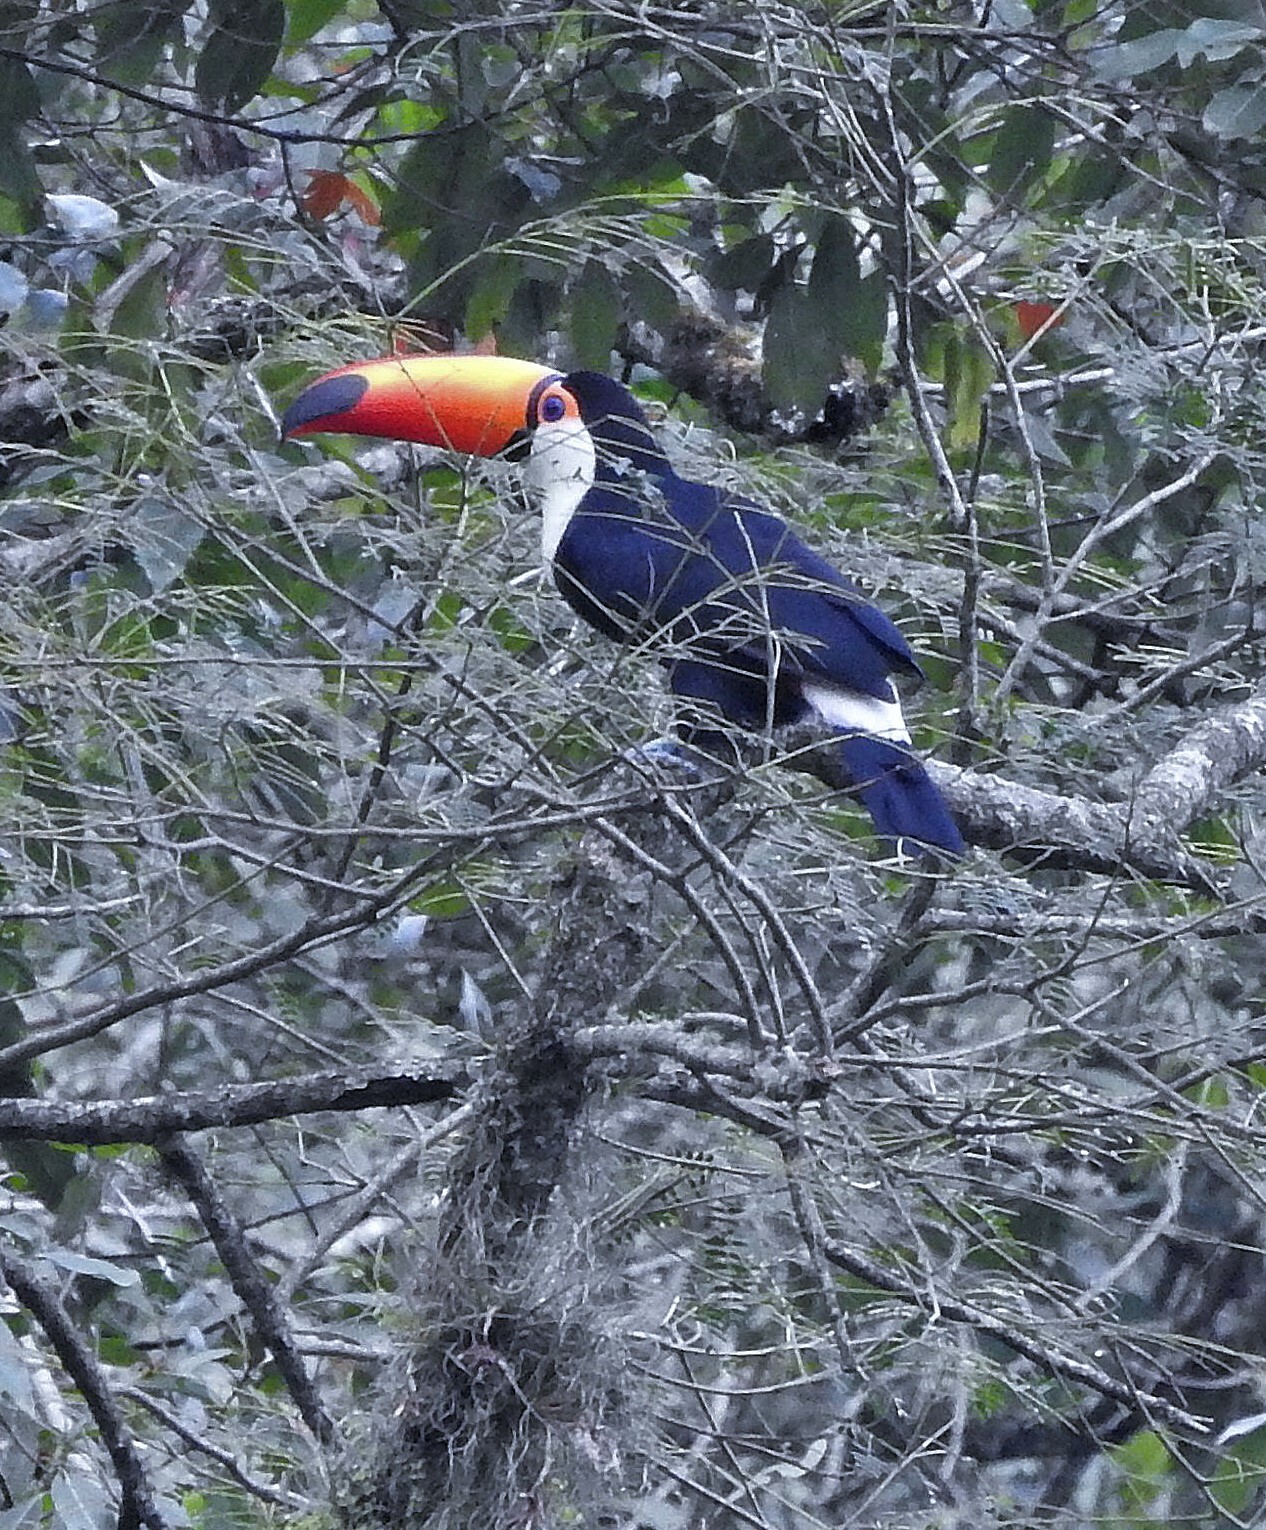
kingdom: Animalia
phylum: Chordata
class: Aves
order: Piciformes
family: Ramphastidae
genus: Ramphastos
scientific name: Ramphastos toco
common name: Toco toucan
